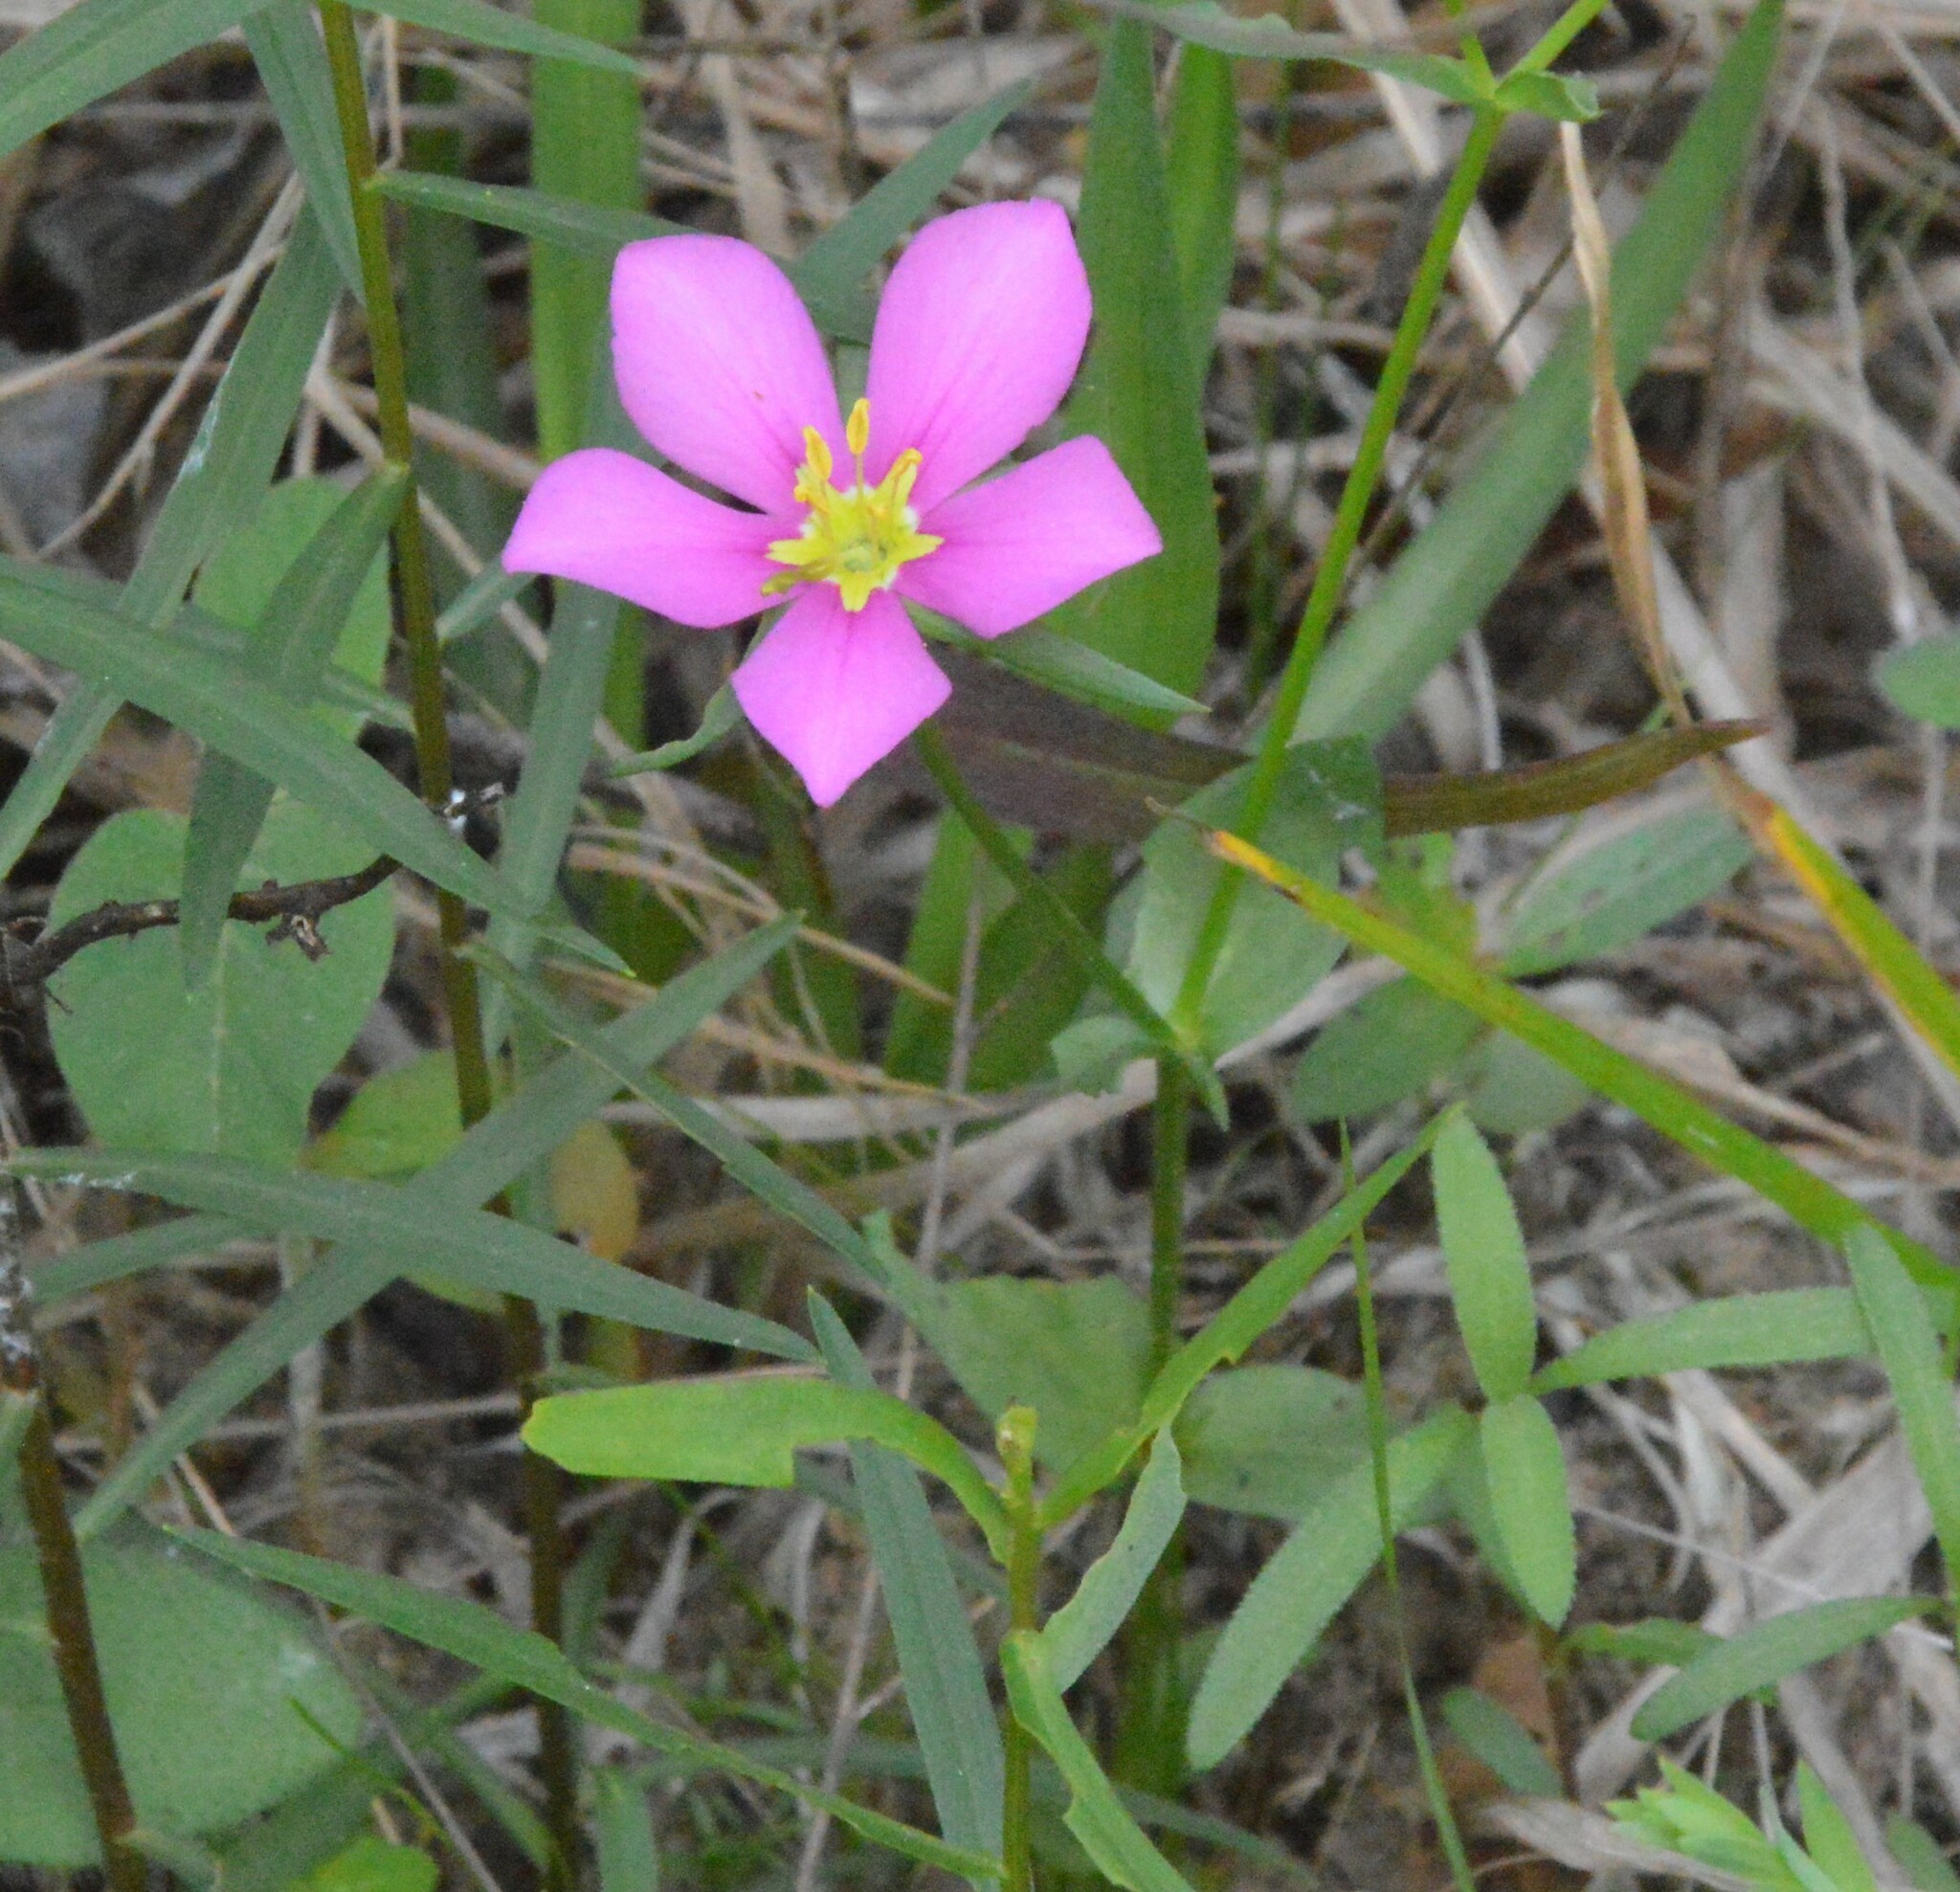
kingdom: Plantae
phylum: Tracheophyta
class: Magnoliopsida
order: Gentianales
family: Gentianaceae
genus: Sabatia
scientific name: Sabatia campestris
